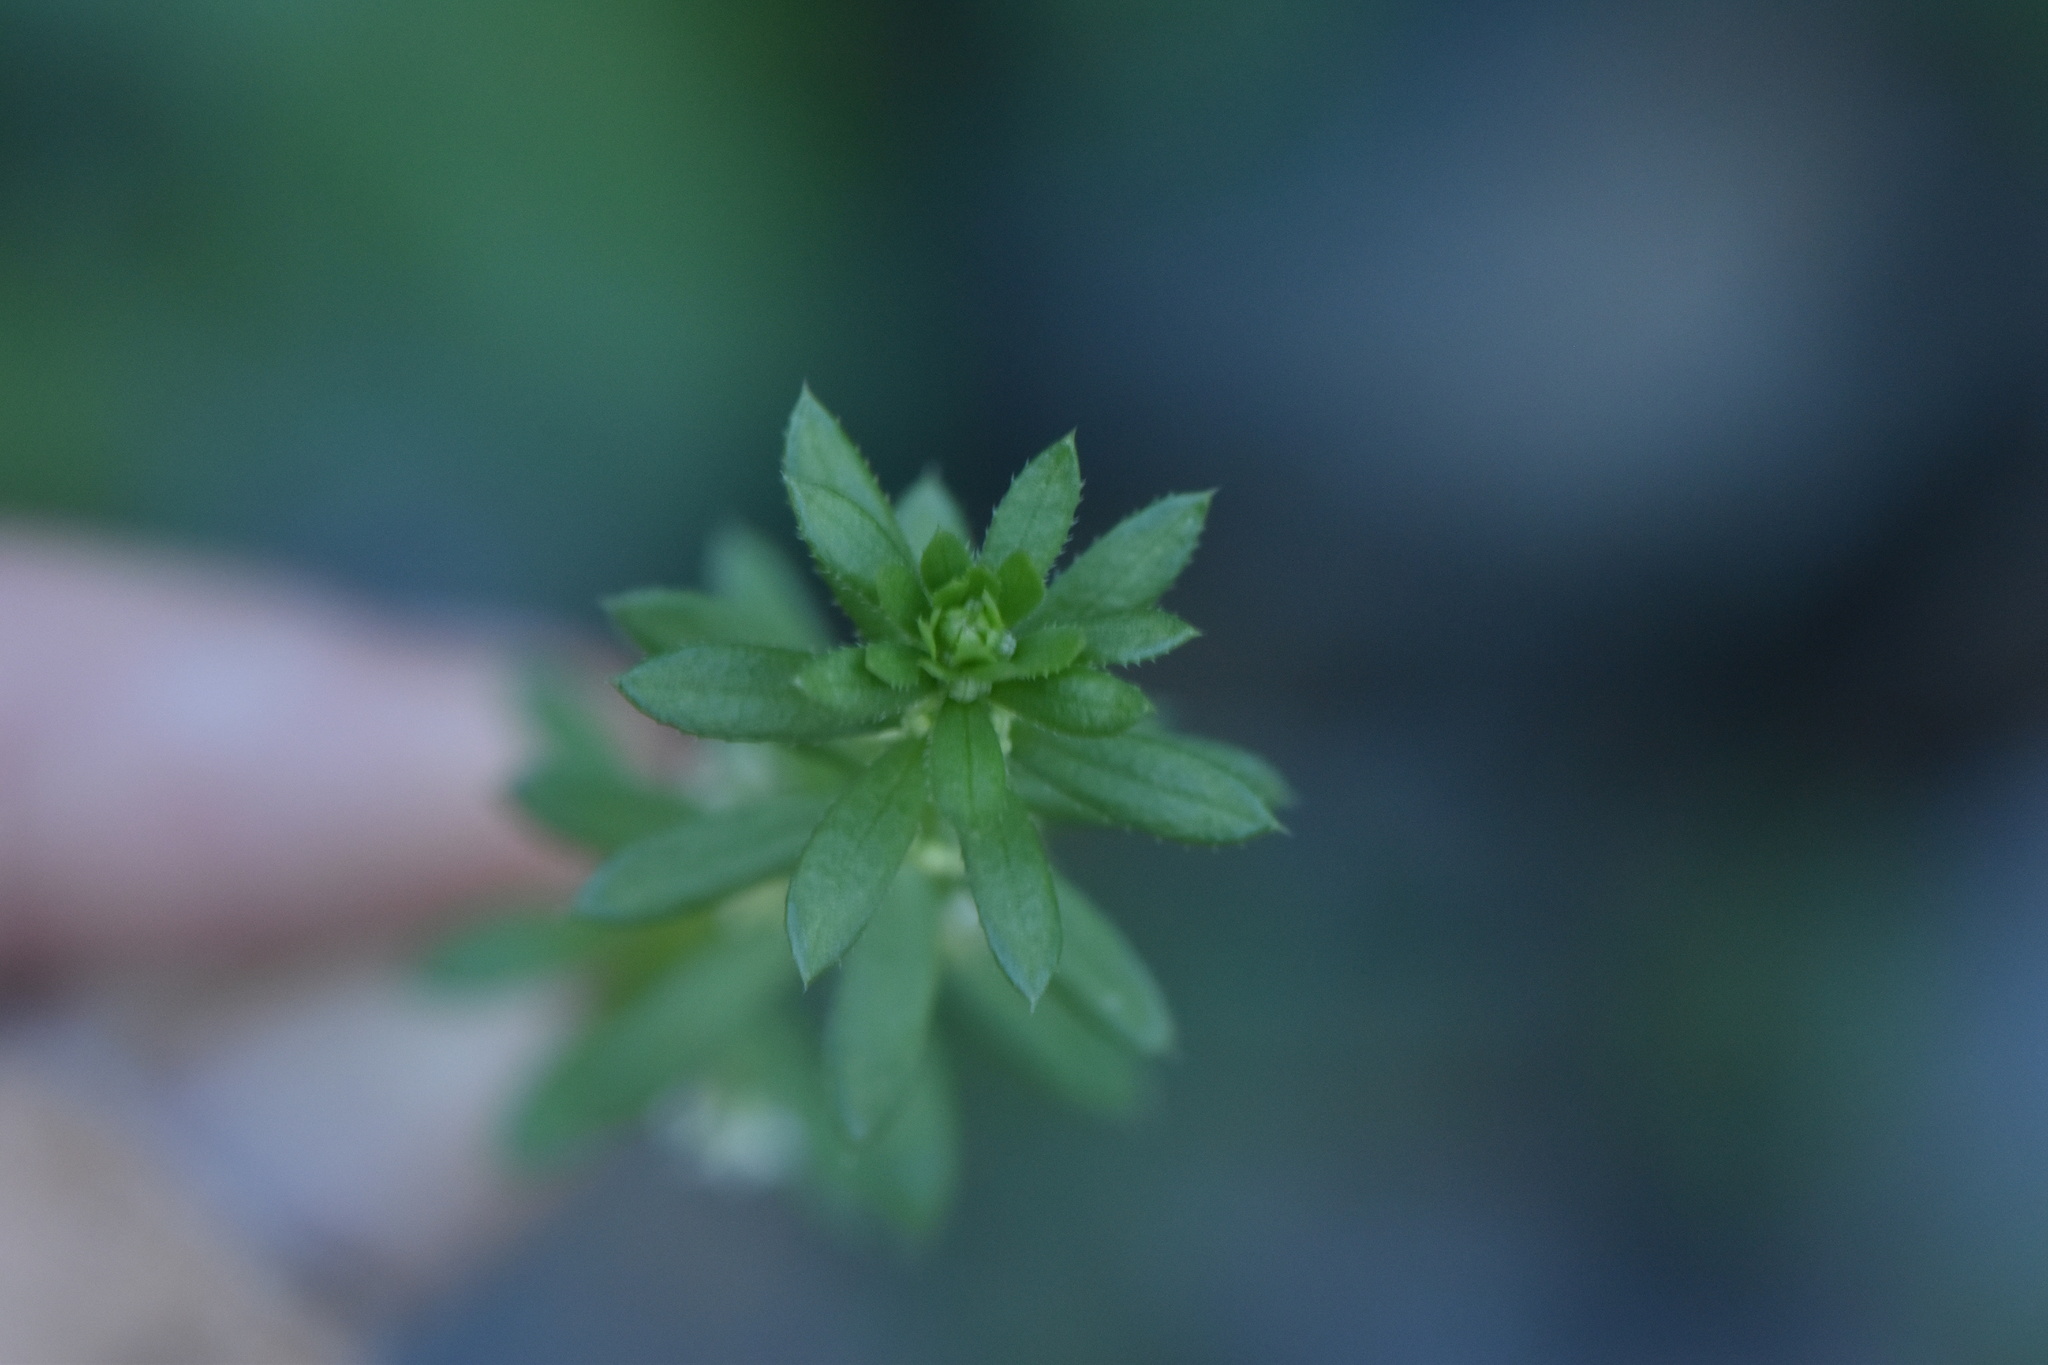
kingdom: Plantae
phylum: Tracheophyta
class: Magnoliopsida
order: Gentianales
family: Rubiaceae
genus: Galium
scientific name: Galium verrucosum
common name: Warty bedstraw
